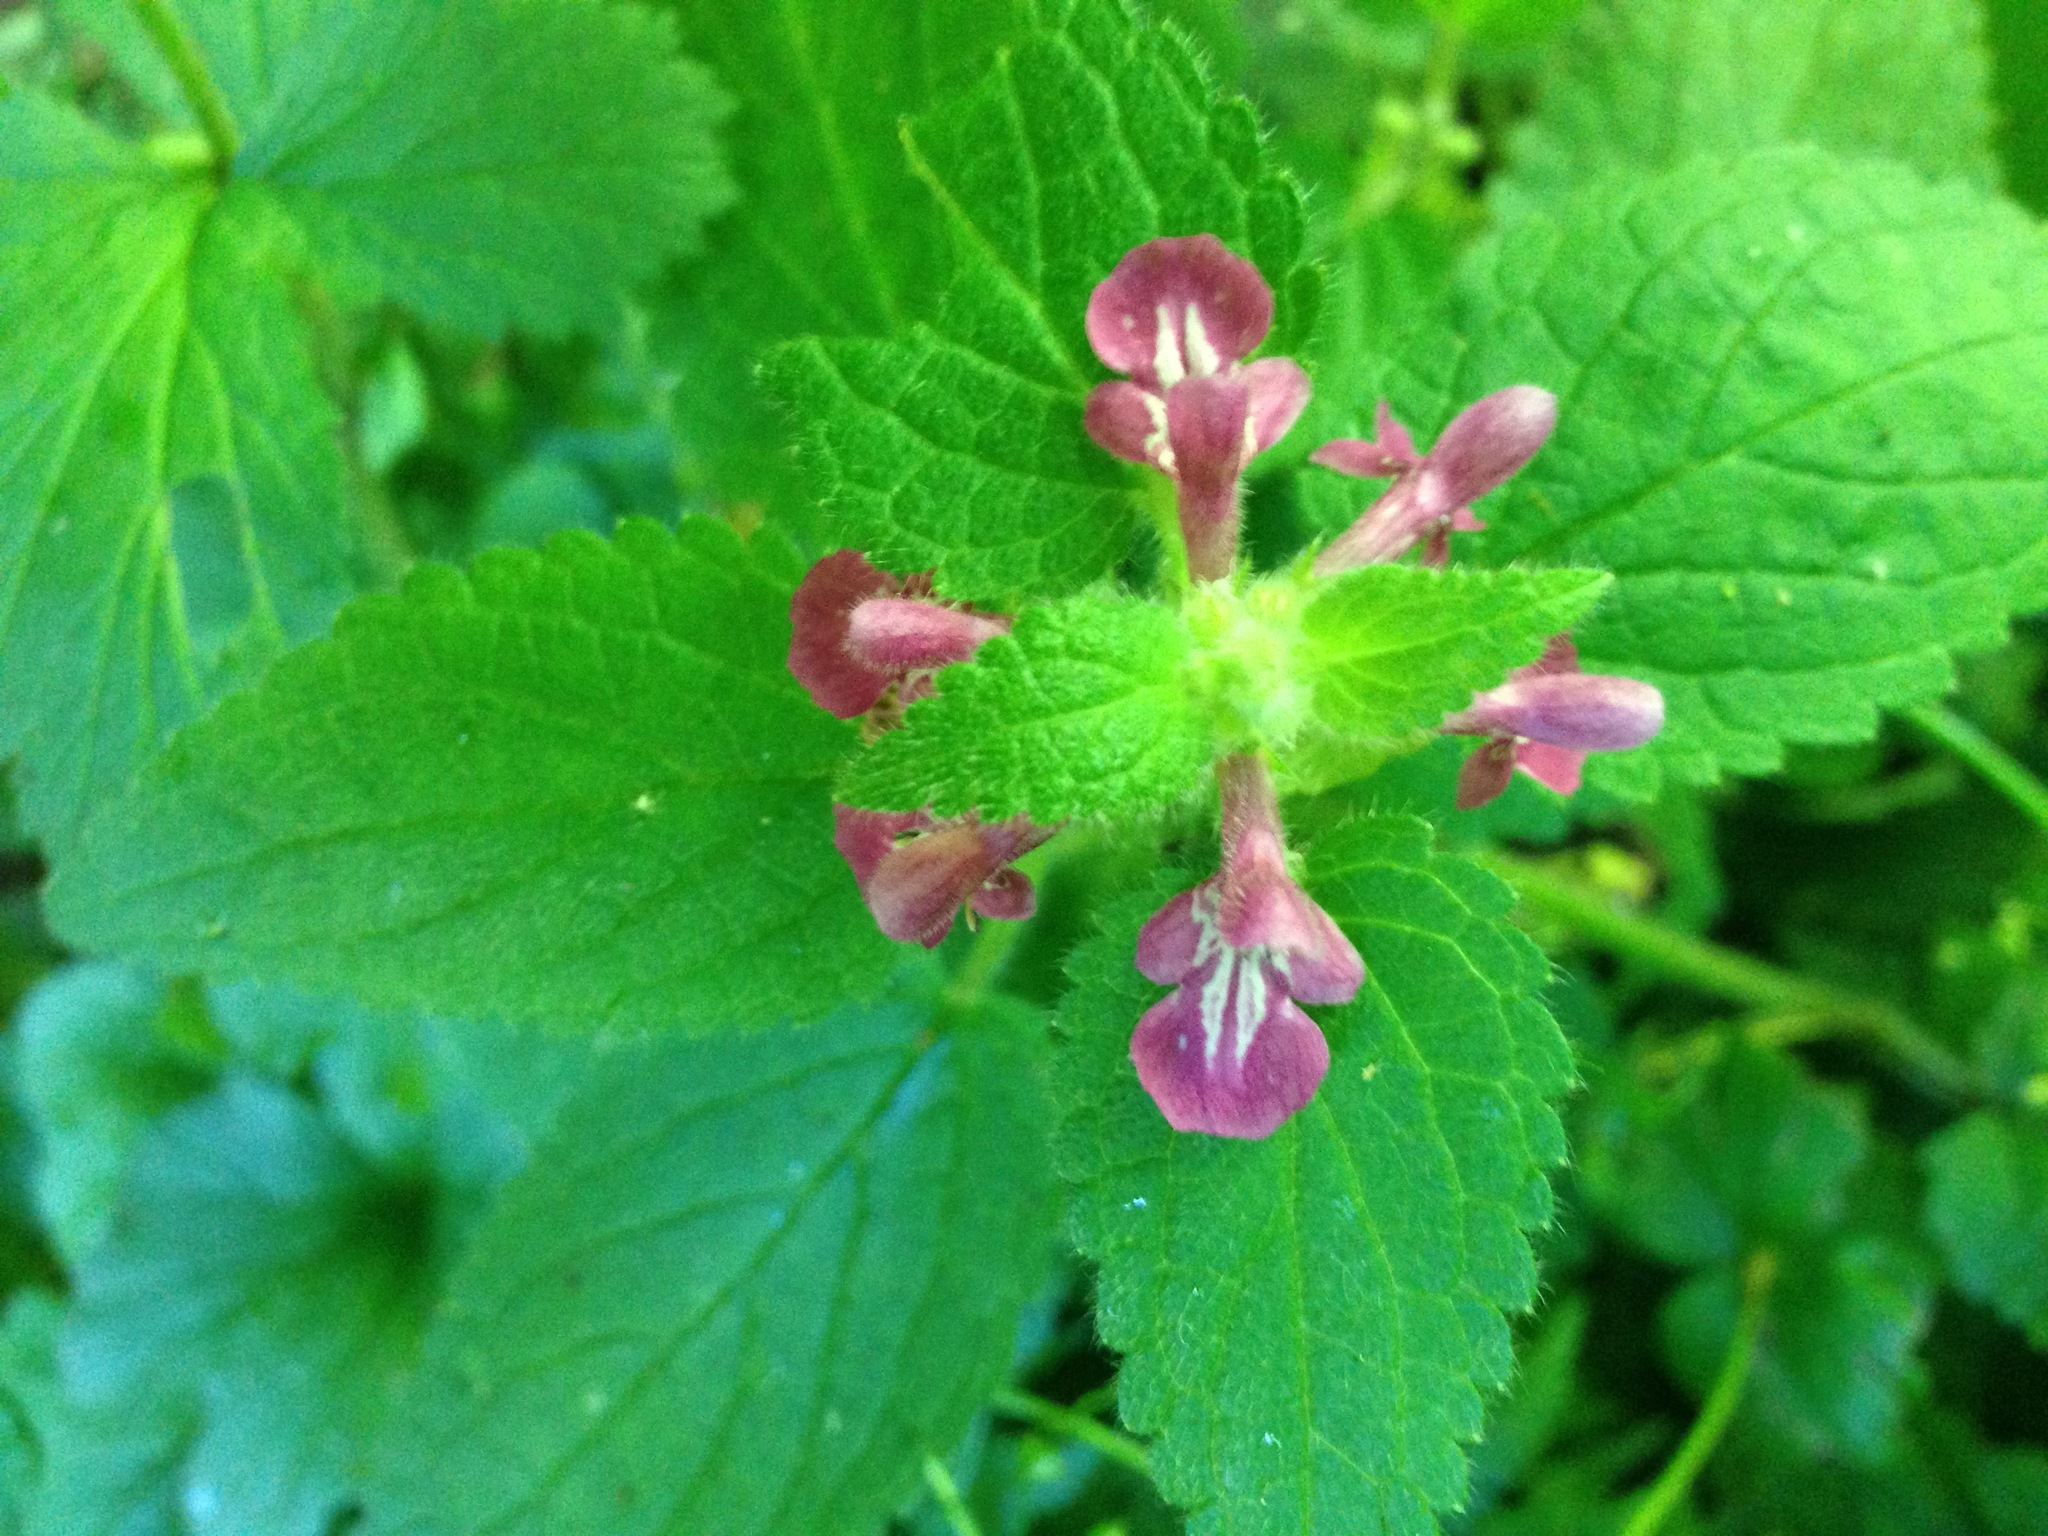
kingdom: Plantae
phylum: Tracheophyta
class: Magnoliopsida
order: Lamiales
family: Lamiaceae
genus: Stachys
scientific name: Stachys mexicana
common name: Mexican hedge-nettle
